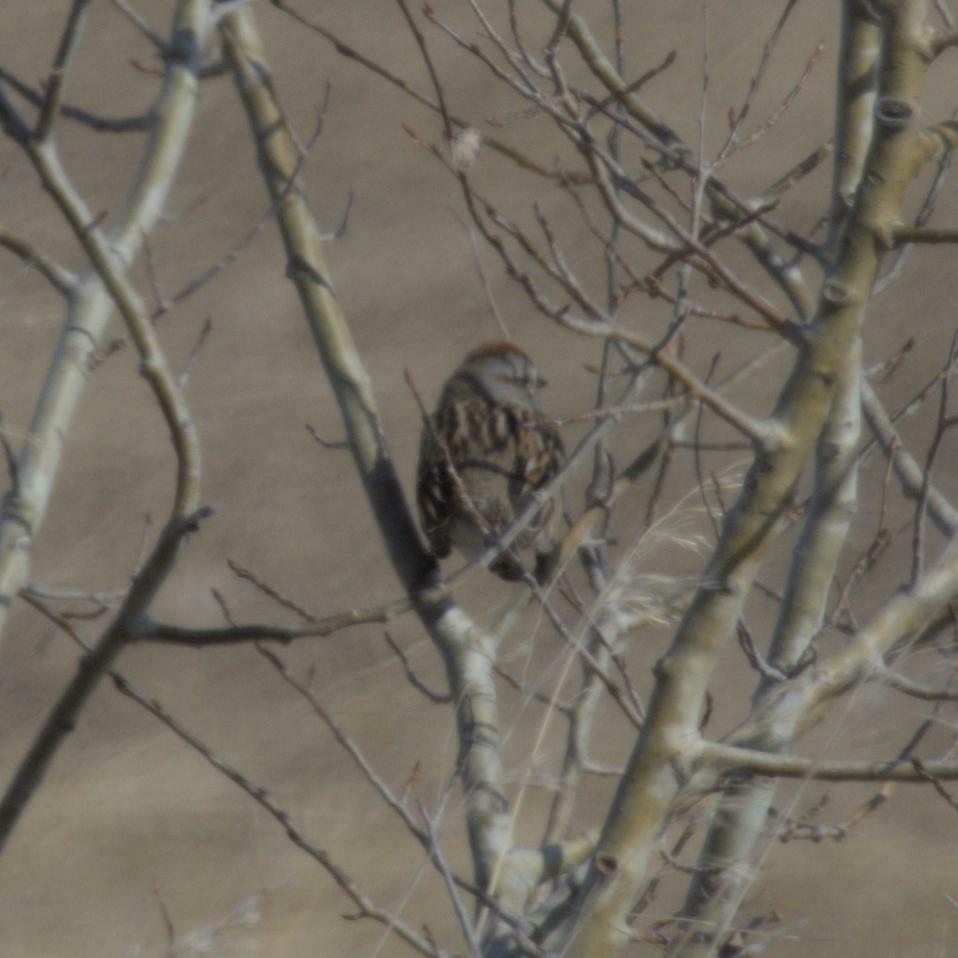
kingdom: Animalia
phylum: Chordata
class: Aves
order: Passeriformes
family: Passerellidae
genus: Spizelloides
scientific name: Spizelloides arborea
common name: American tree sparrow
